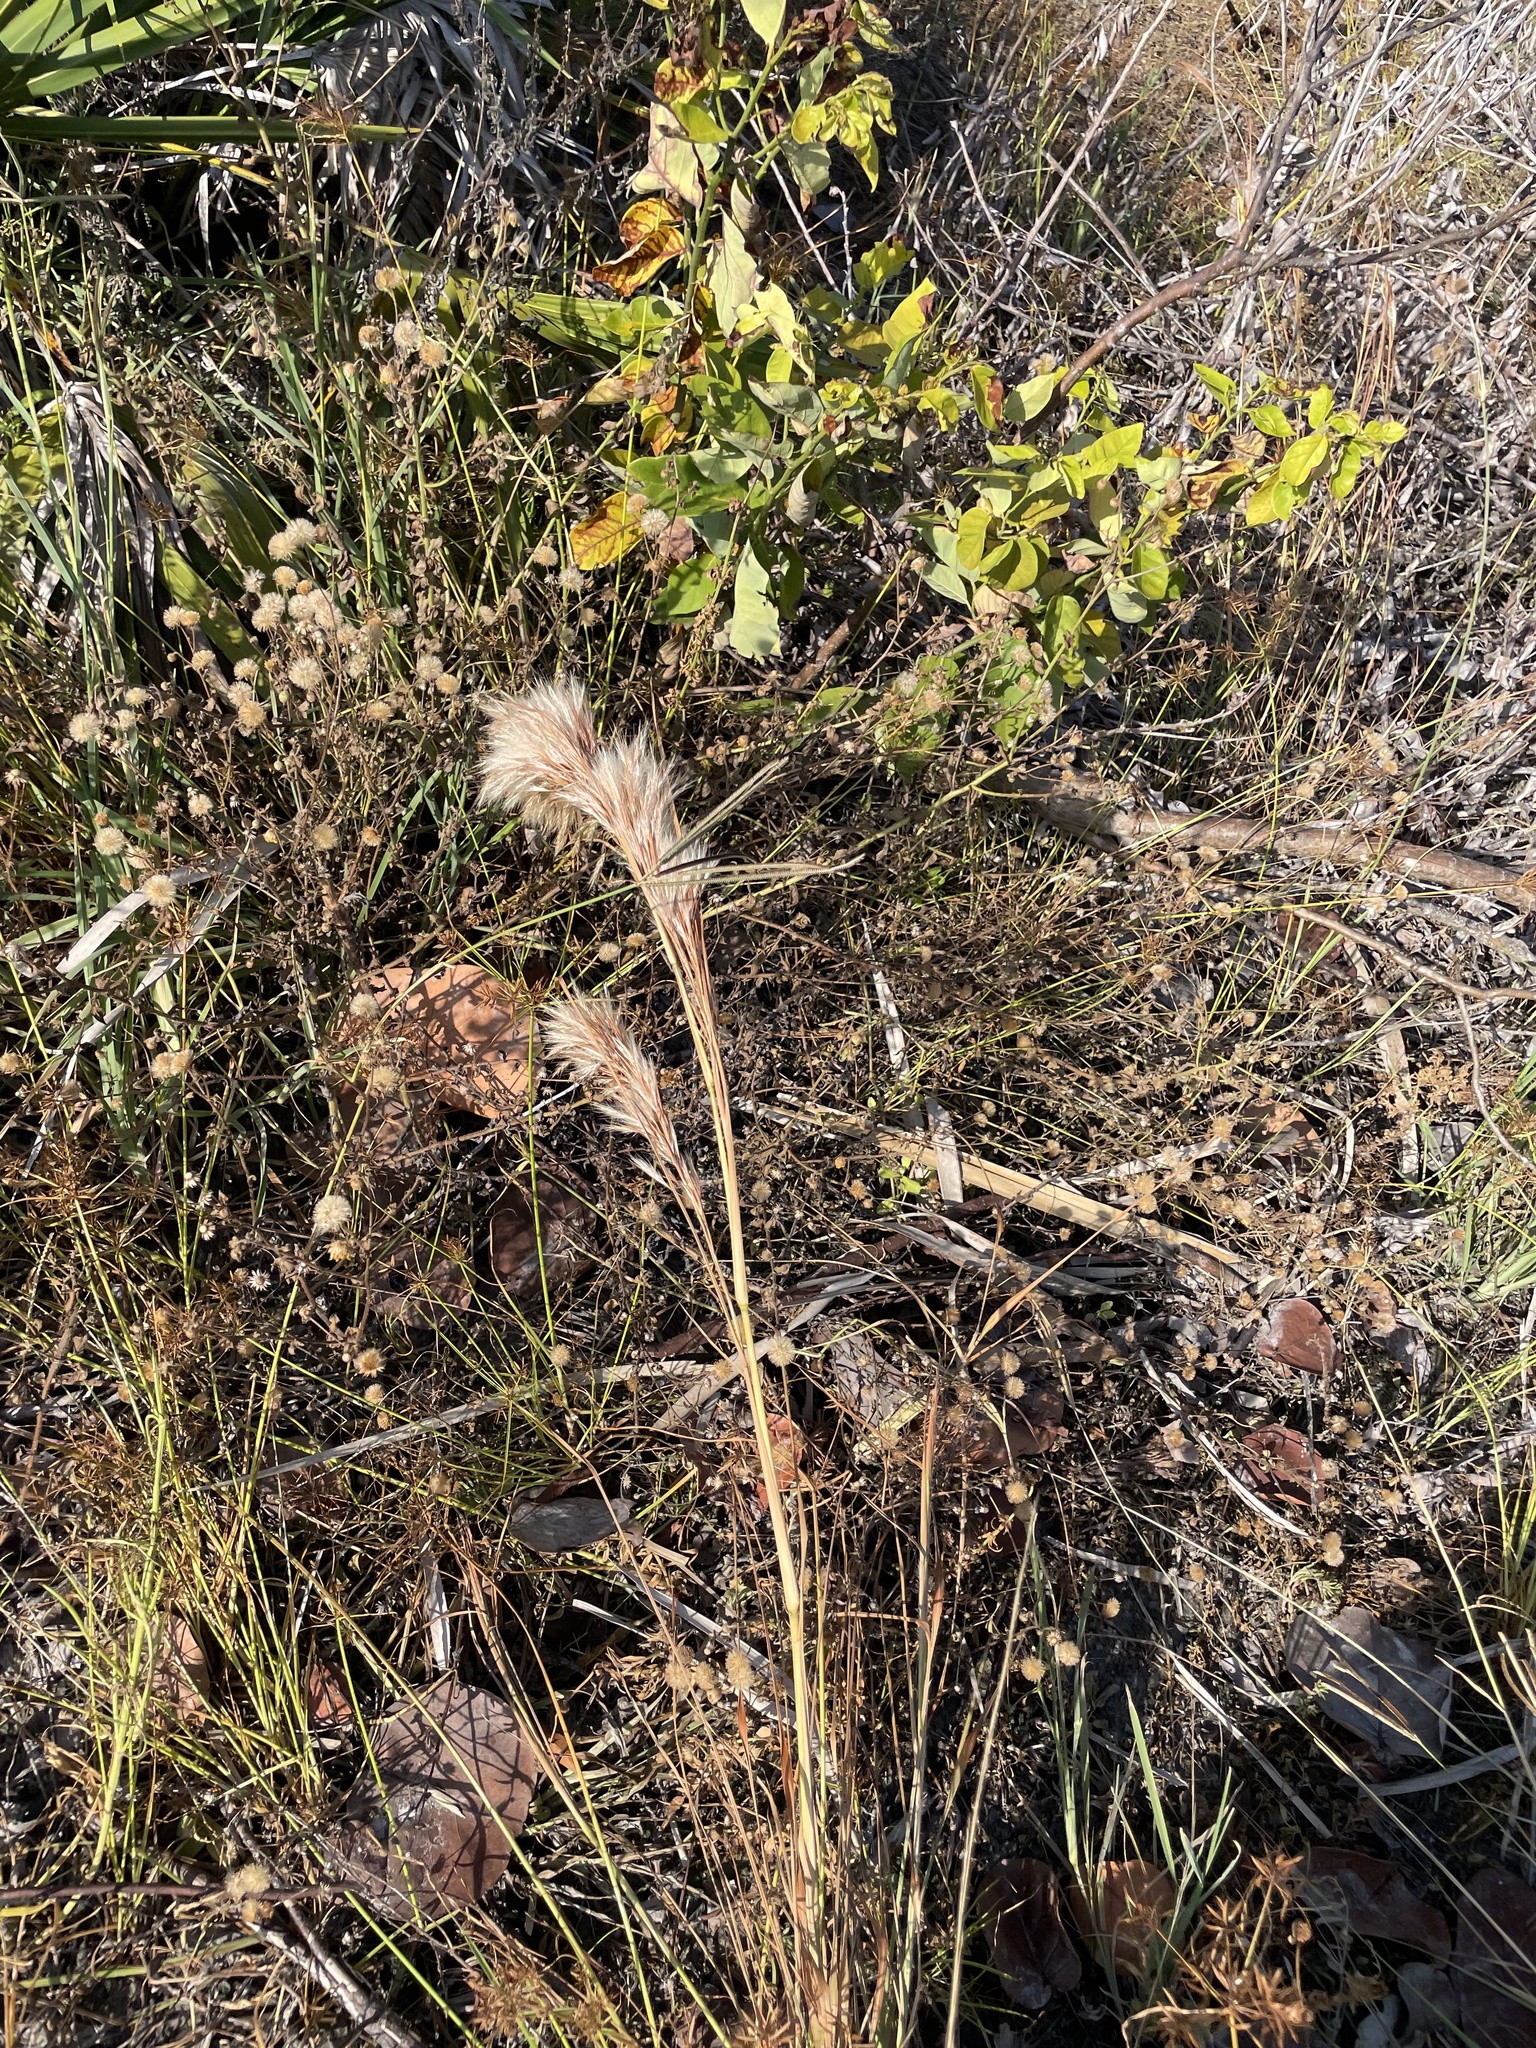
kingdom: Plantae
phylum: Tracheophyta
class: Liliopsida
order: Poales
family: Poaceae
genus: Andropogon
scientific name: Andropogon tenuispatheus
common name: Bushy bluestem
